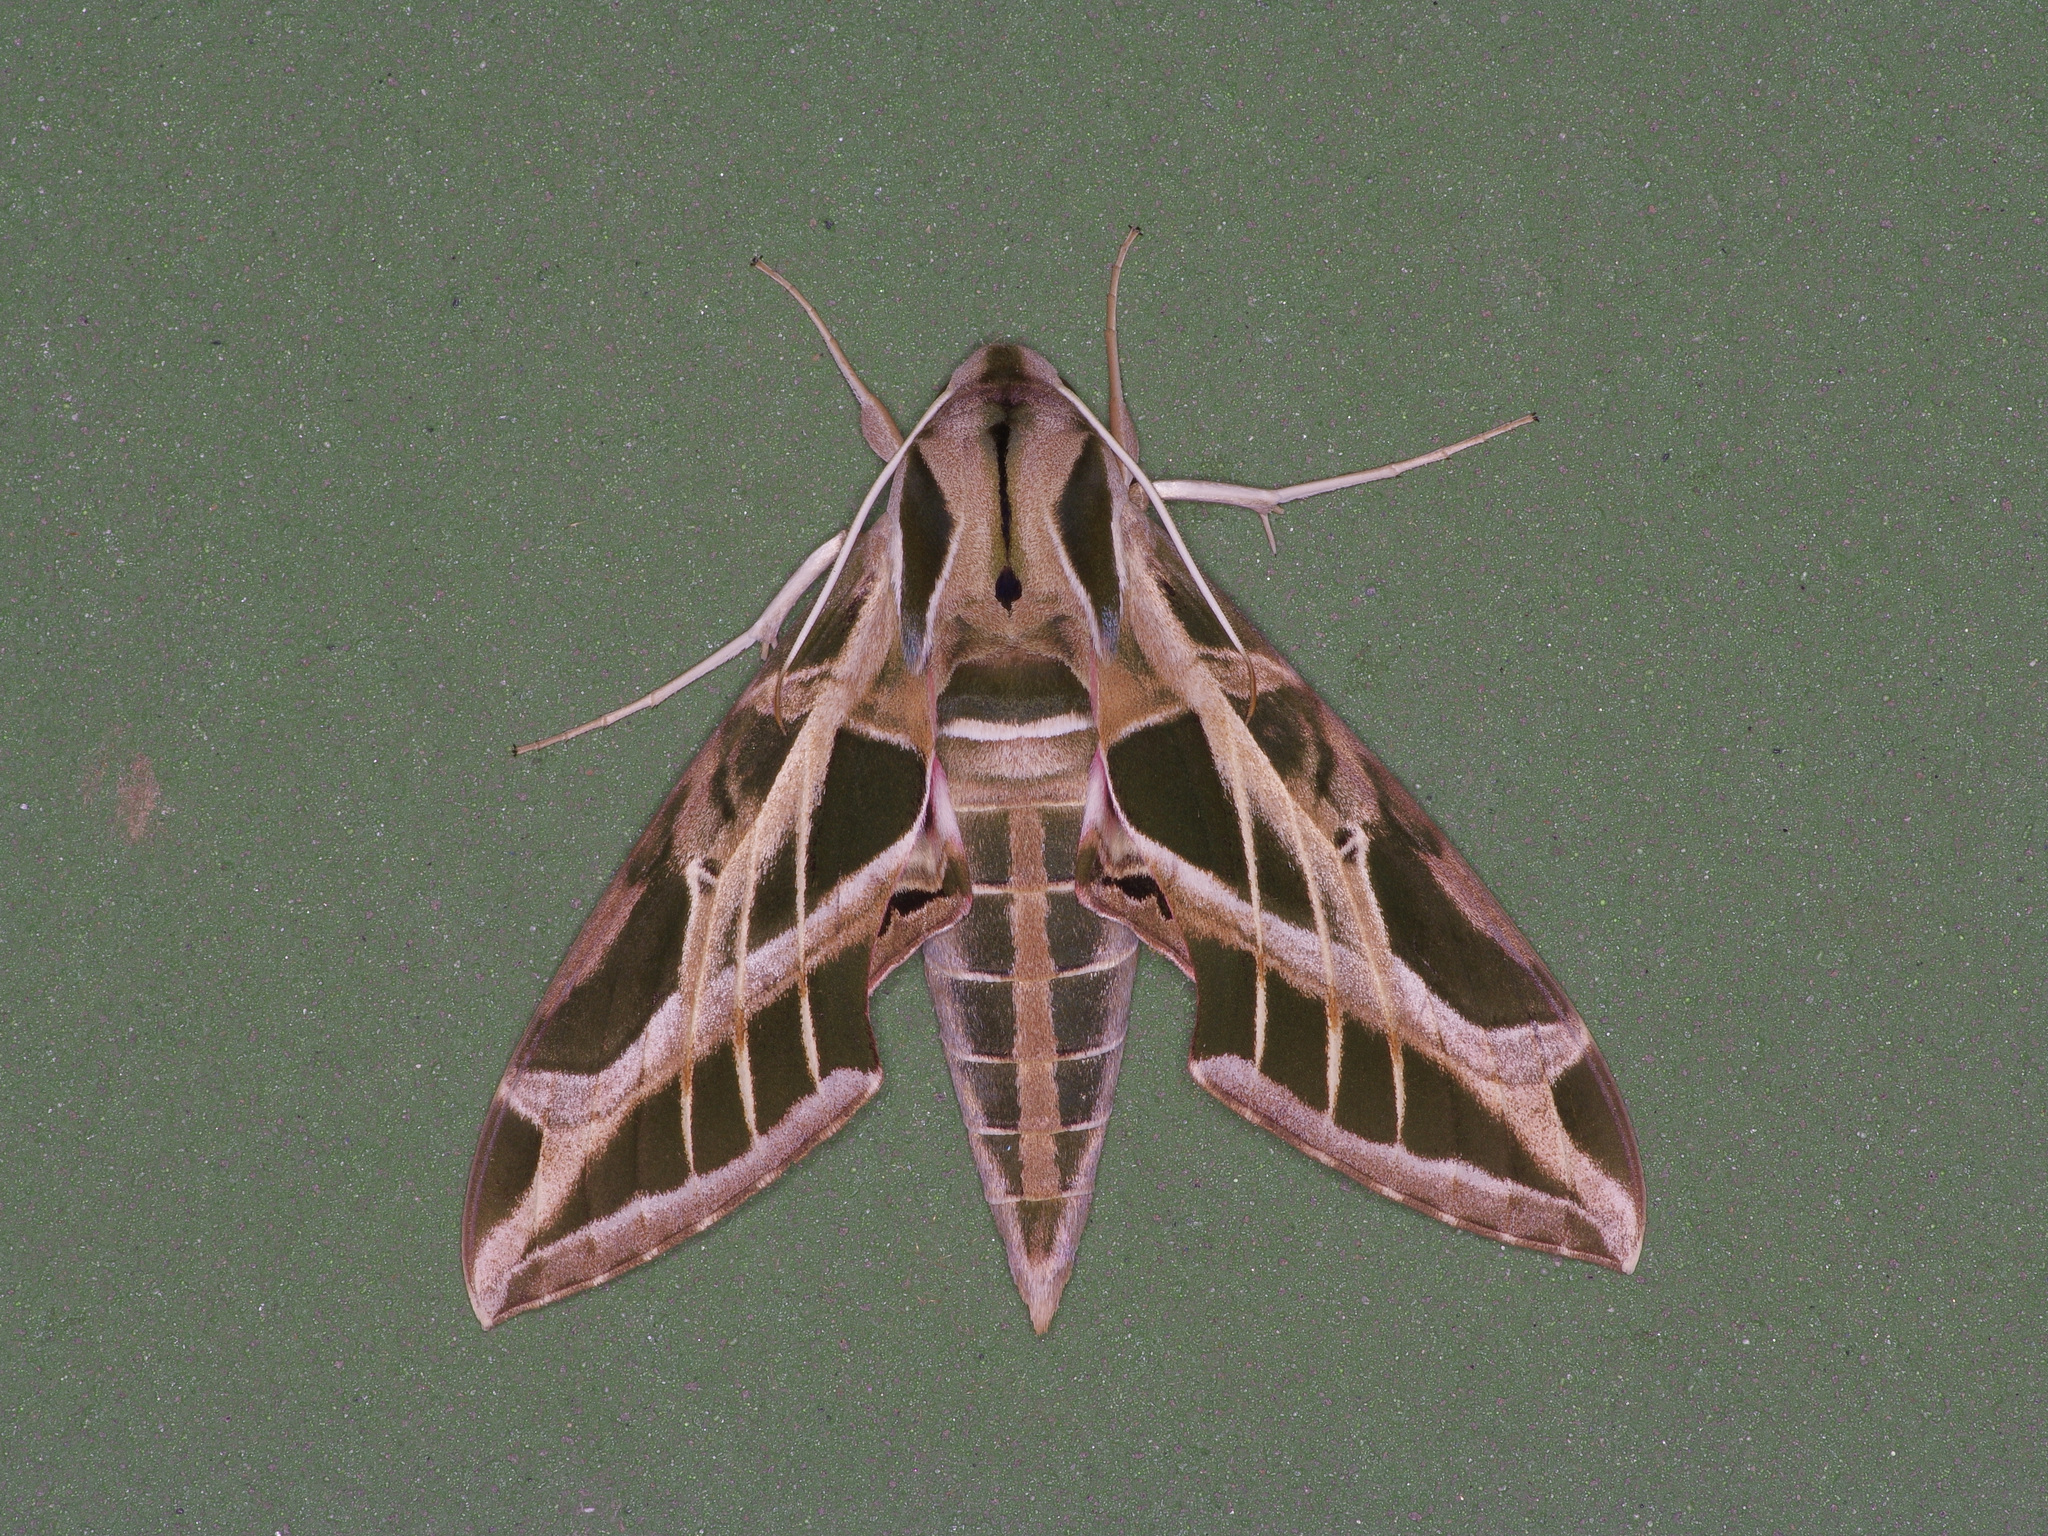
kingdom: Animalia
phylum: Arthropoda
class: Insecta
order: Lepidoptera
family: Sphingidae
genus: Eumorpha
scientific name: Eumorpha vitis
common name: Vine sphinx
